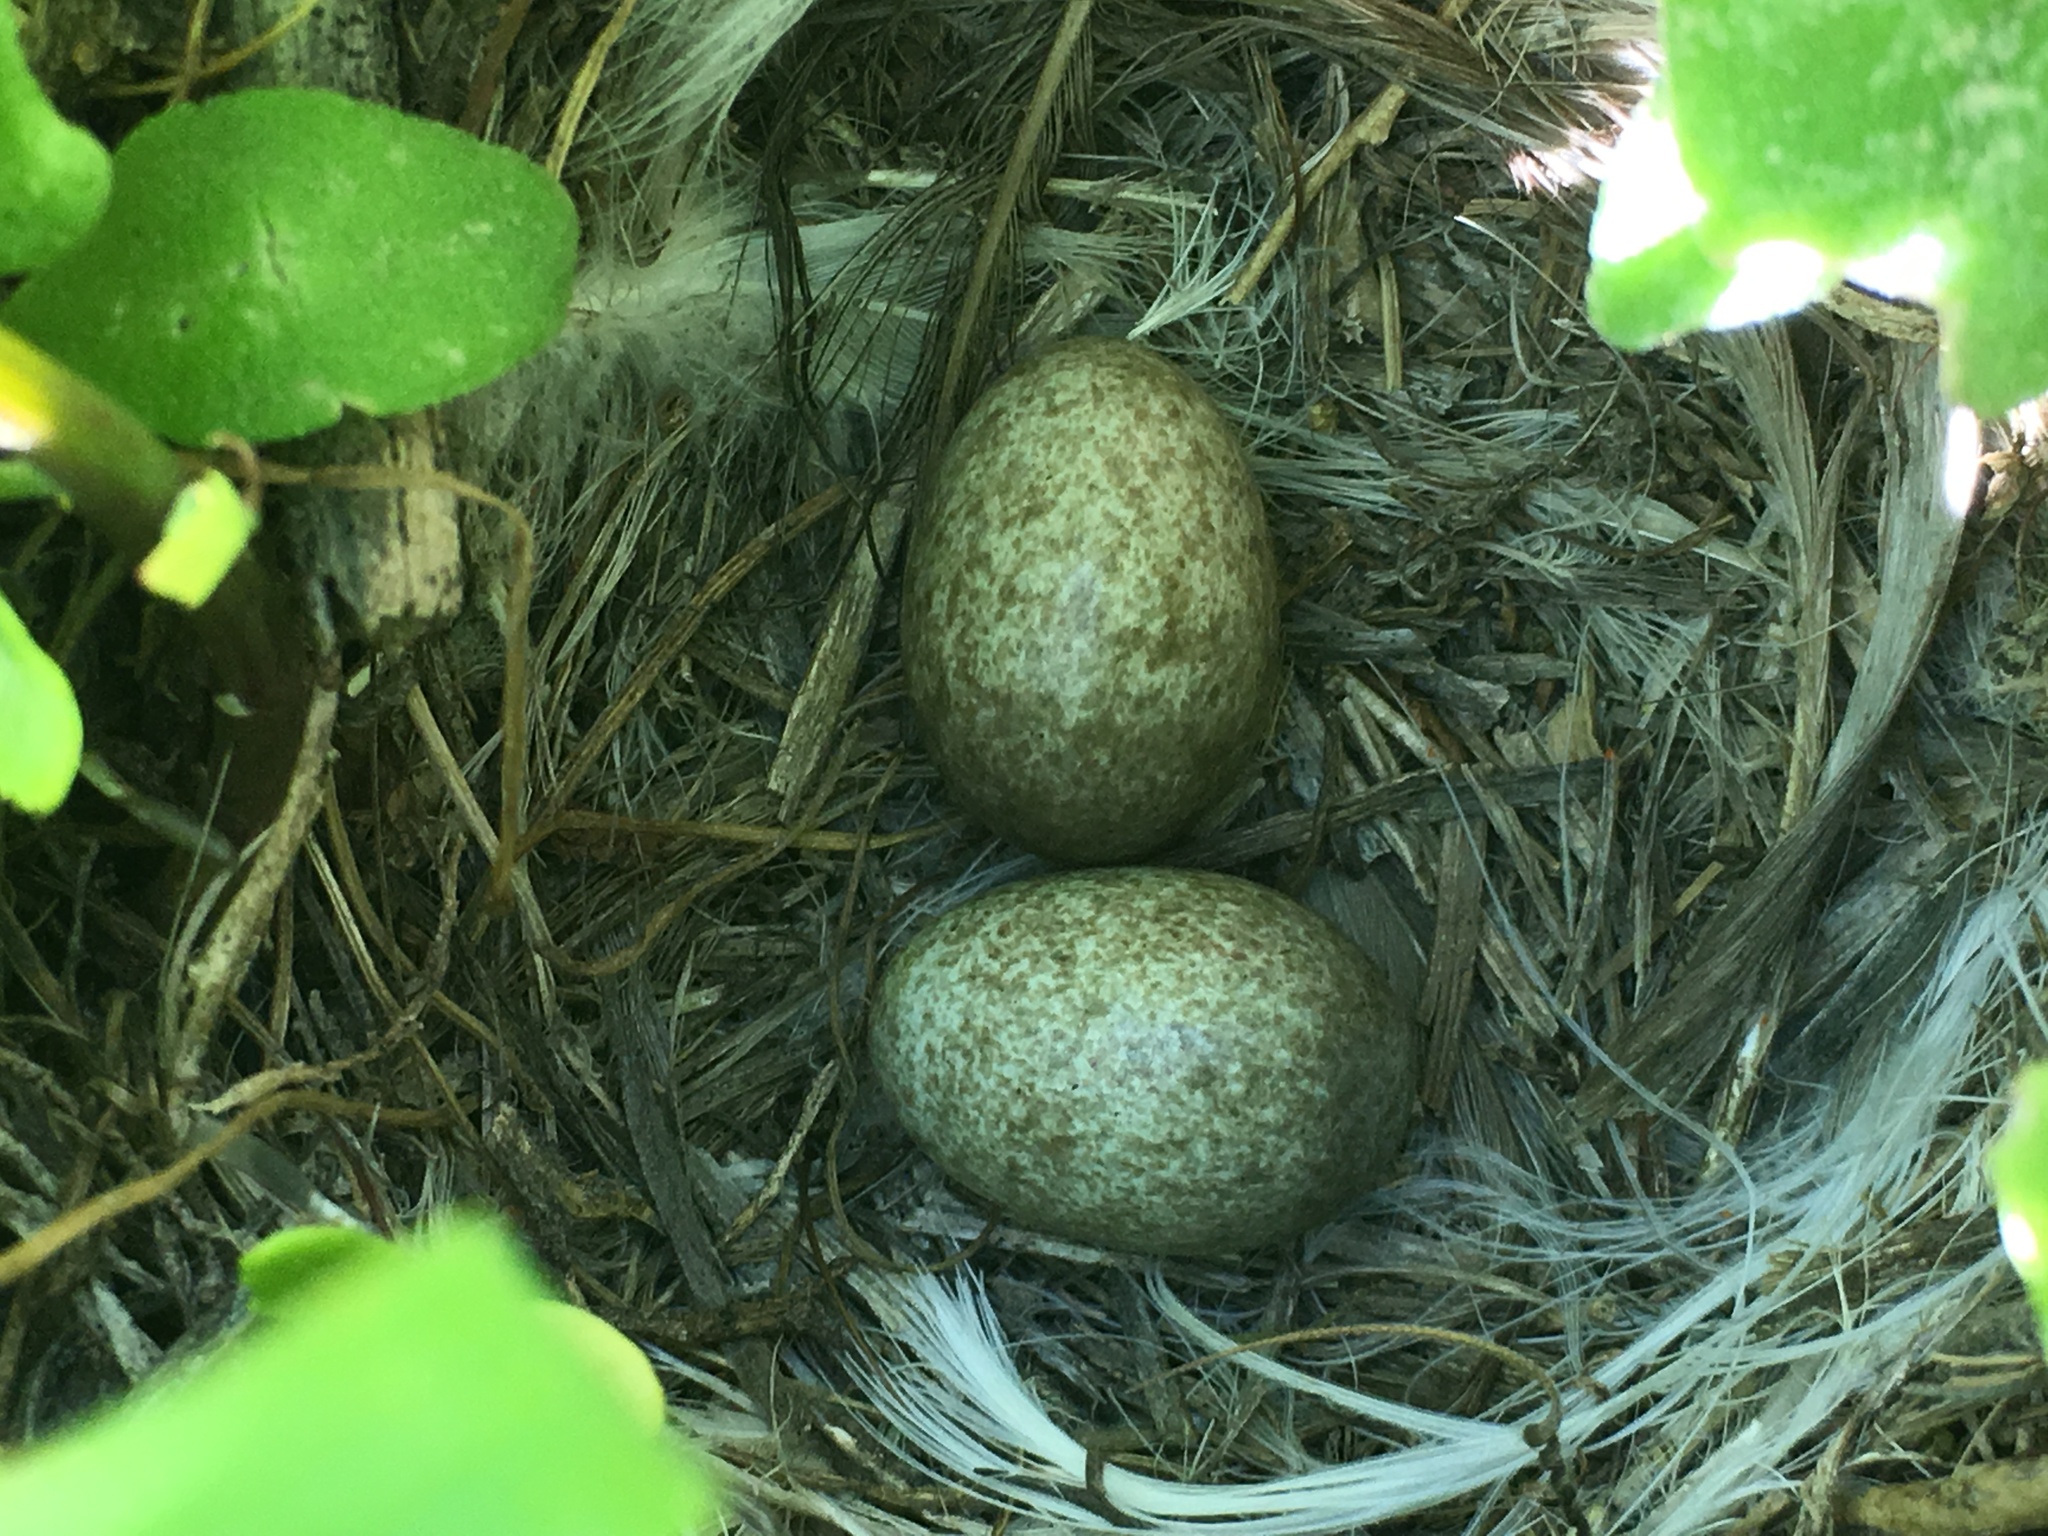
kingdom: Animalia
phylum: Chordata
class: Aves
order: Passeriformes
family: Alaudidae
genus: Eremophila
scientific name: Eremophila alpestris
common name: Horned lark
